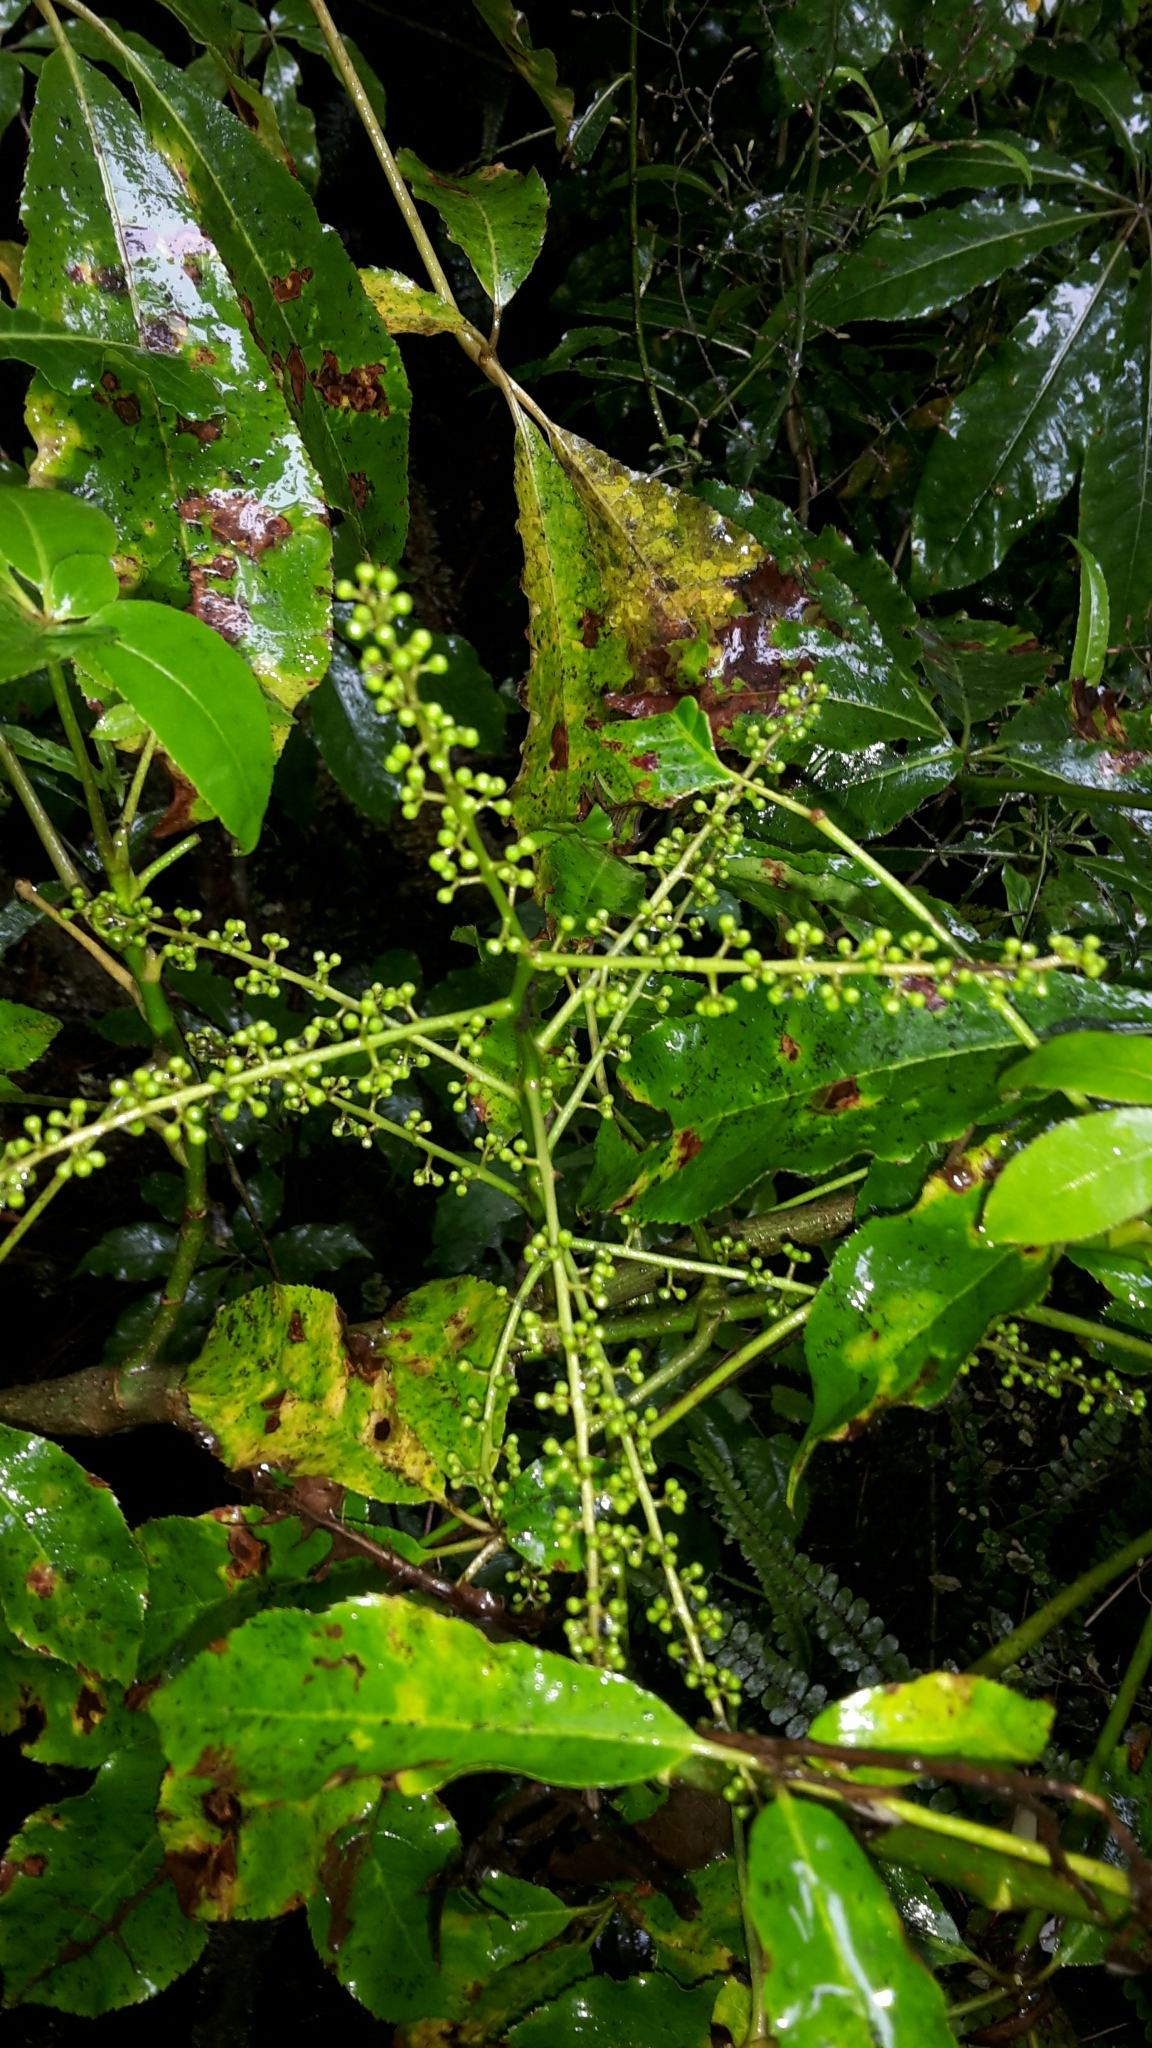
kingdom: Plantae
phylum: Tracheophyta
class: Magnoliopsida
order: Apiales
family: Araliaceae
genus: Schefflera
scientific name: Schefflera digitata
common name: Pate
